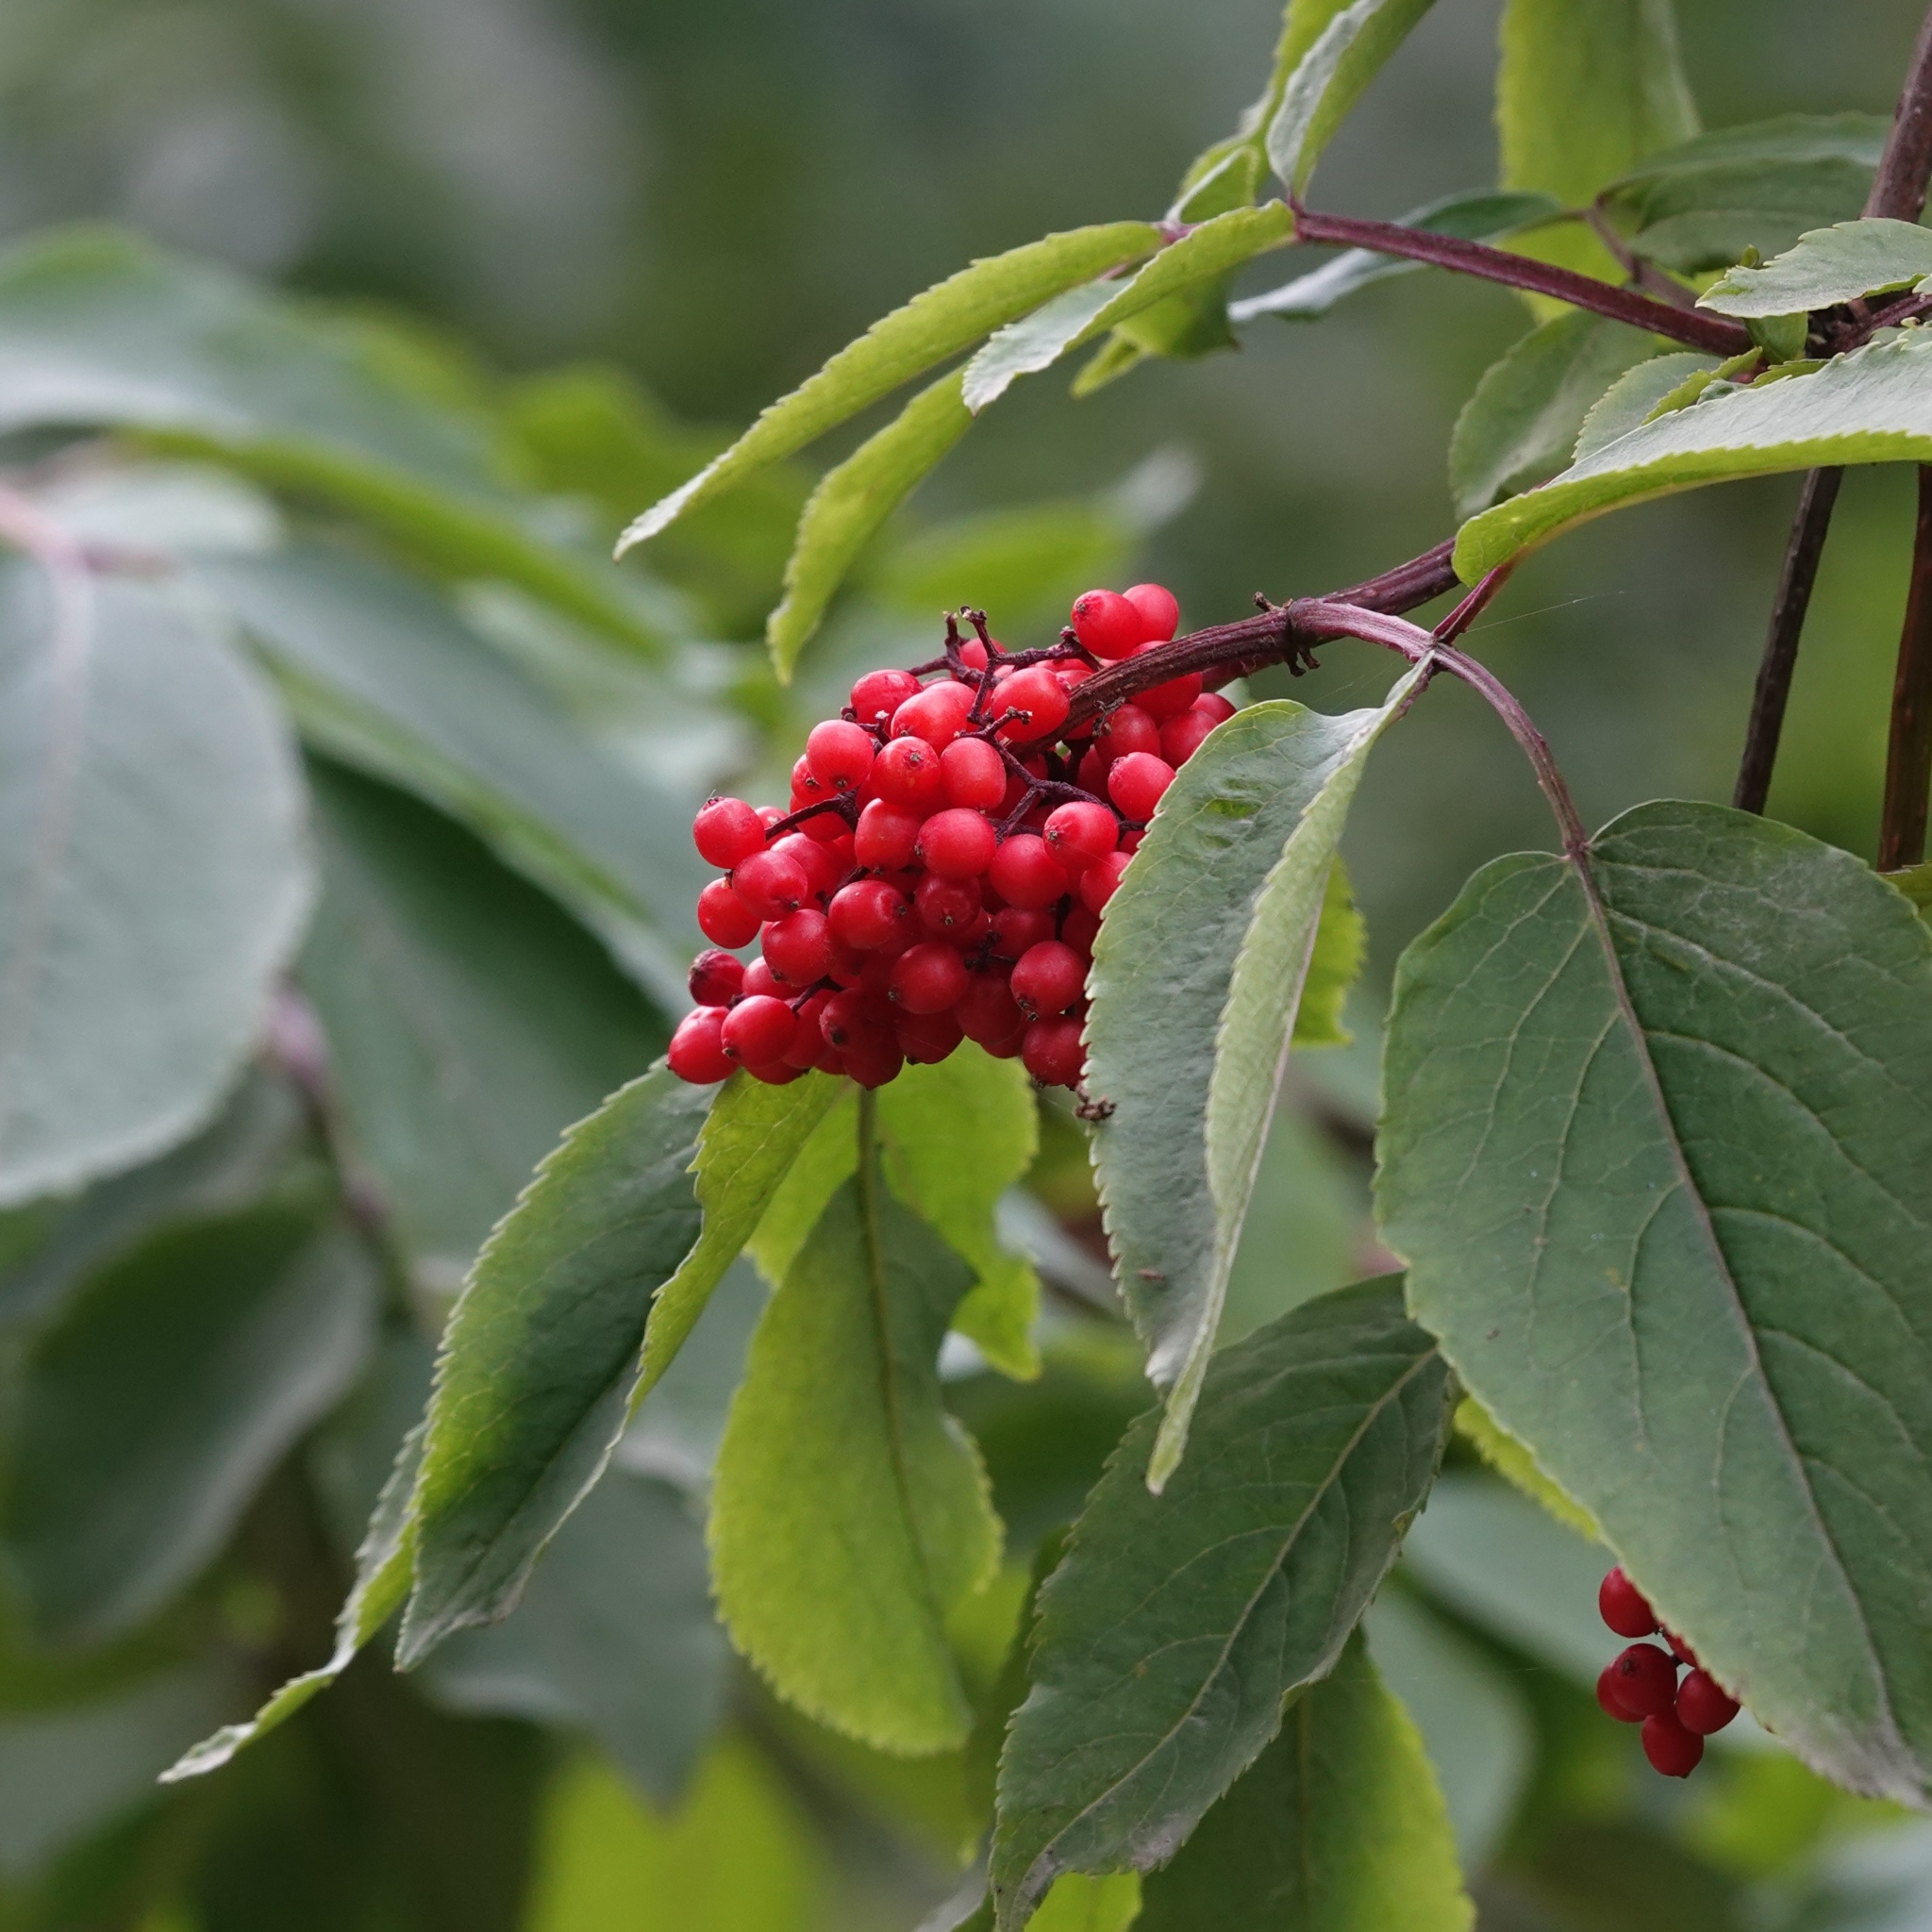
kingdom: Plantae
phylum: Tracheophyta
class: Magnoliopsida
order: Dipsacales
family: Viburnaceae
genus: Sambucus
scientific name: Sambucus racemosa
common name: Red-berried elder
